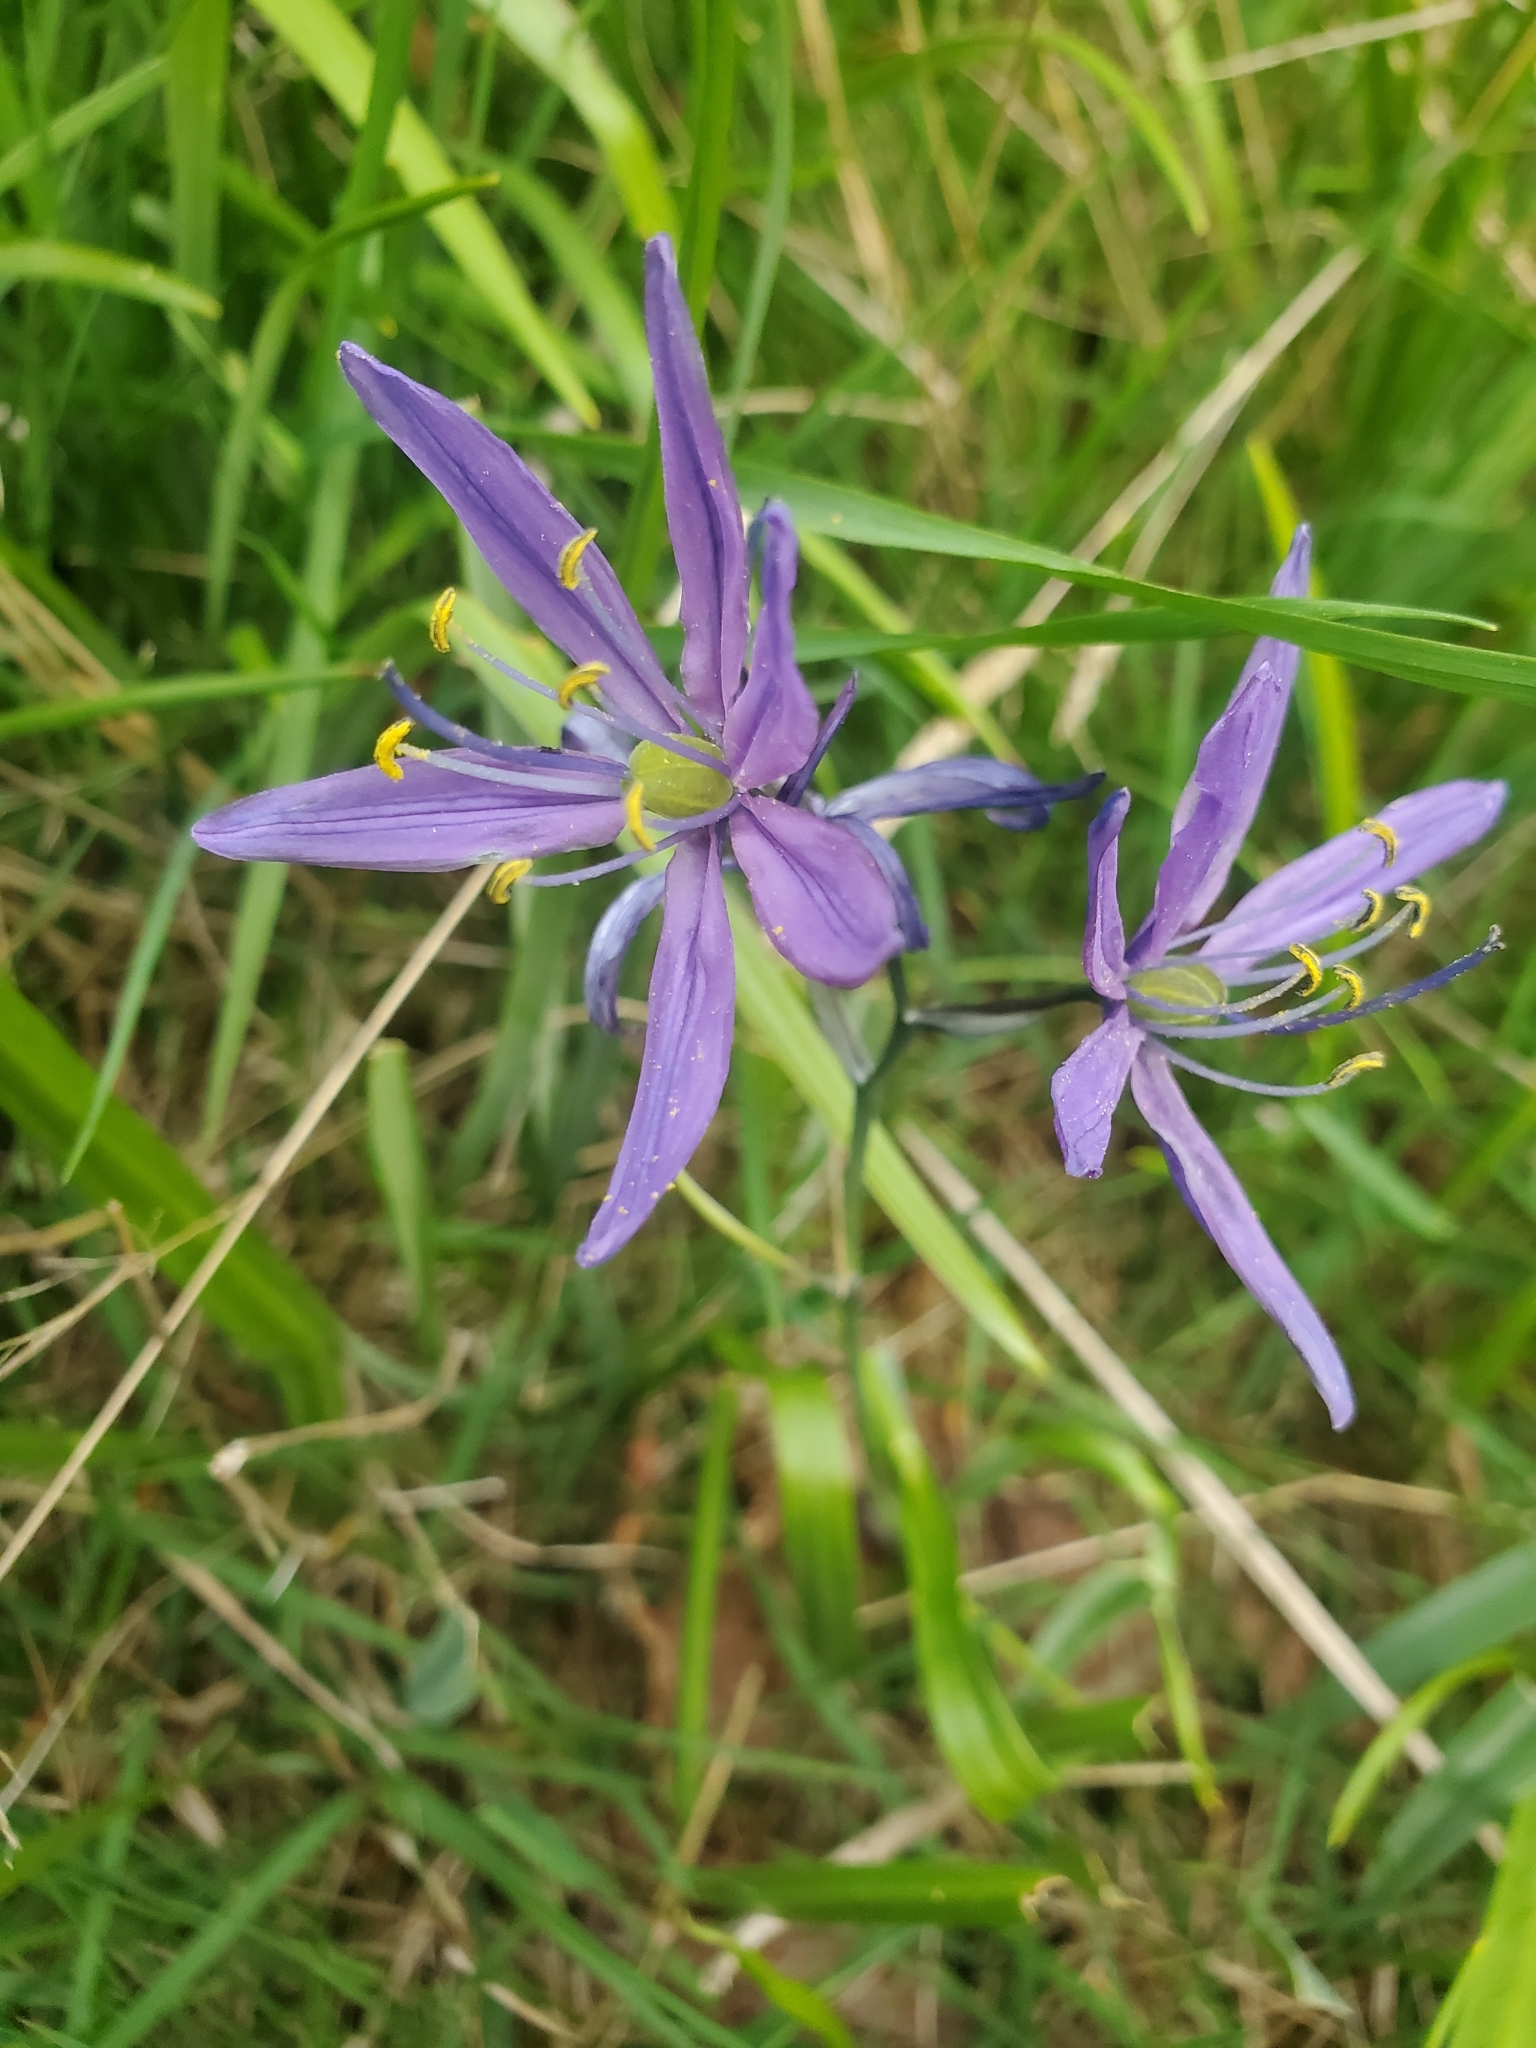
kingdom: Plantae
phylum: Tracheophyta
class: Liliopsida
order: Asparagales
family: Asparagaceae
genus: Camassia
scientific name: Camassia quamash
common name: Common camas
